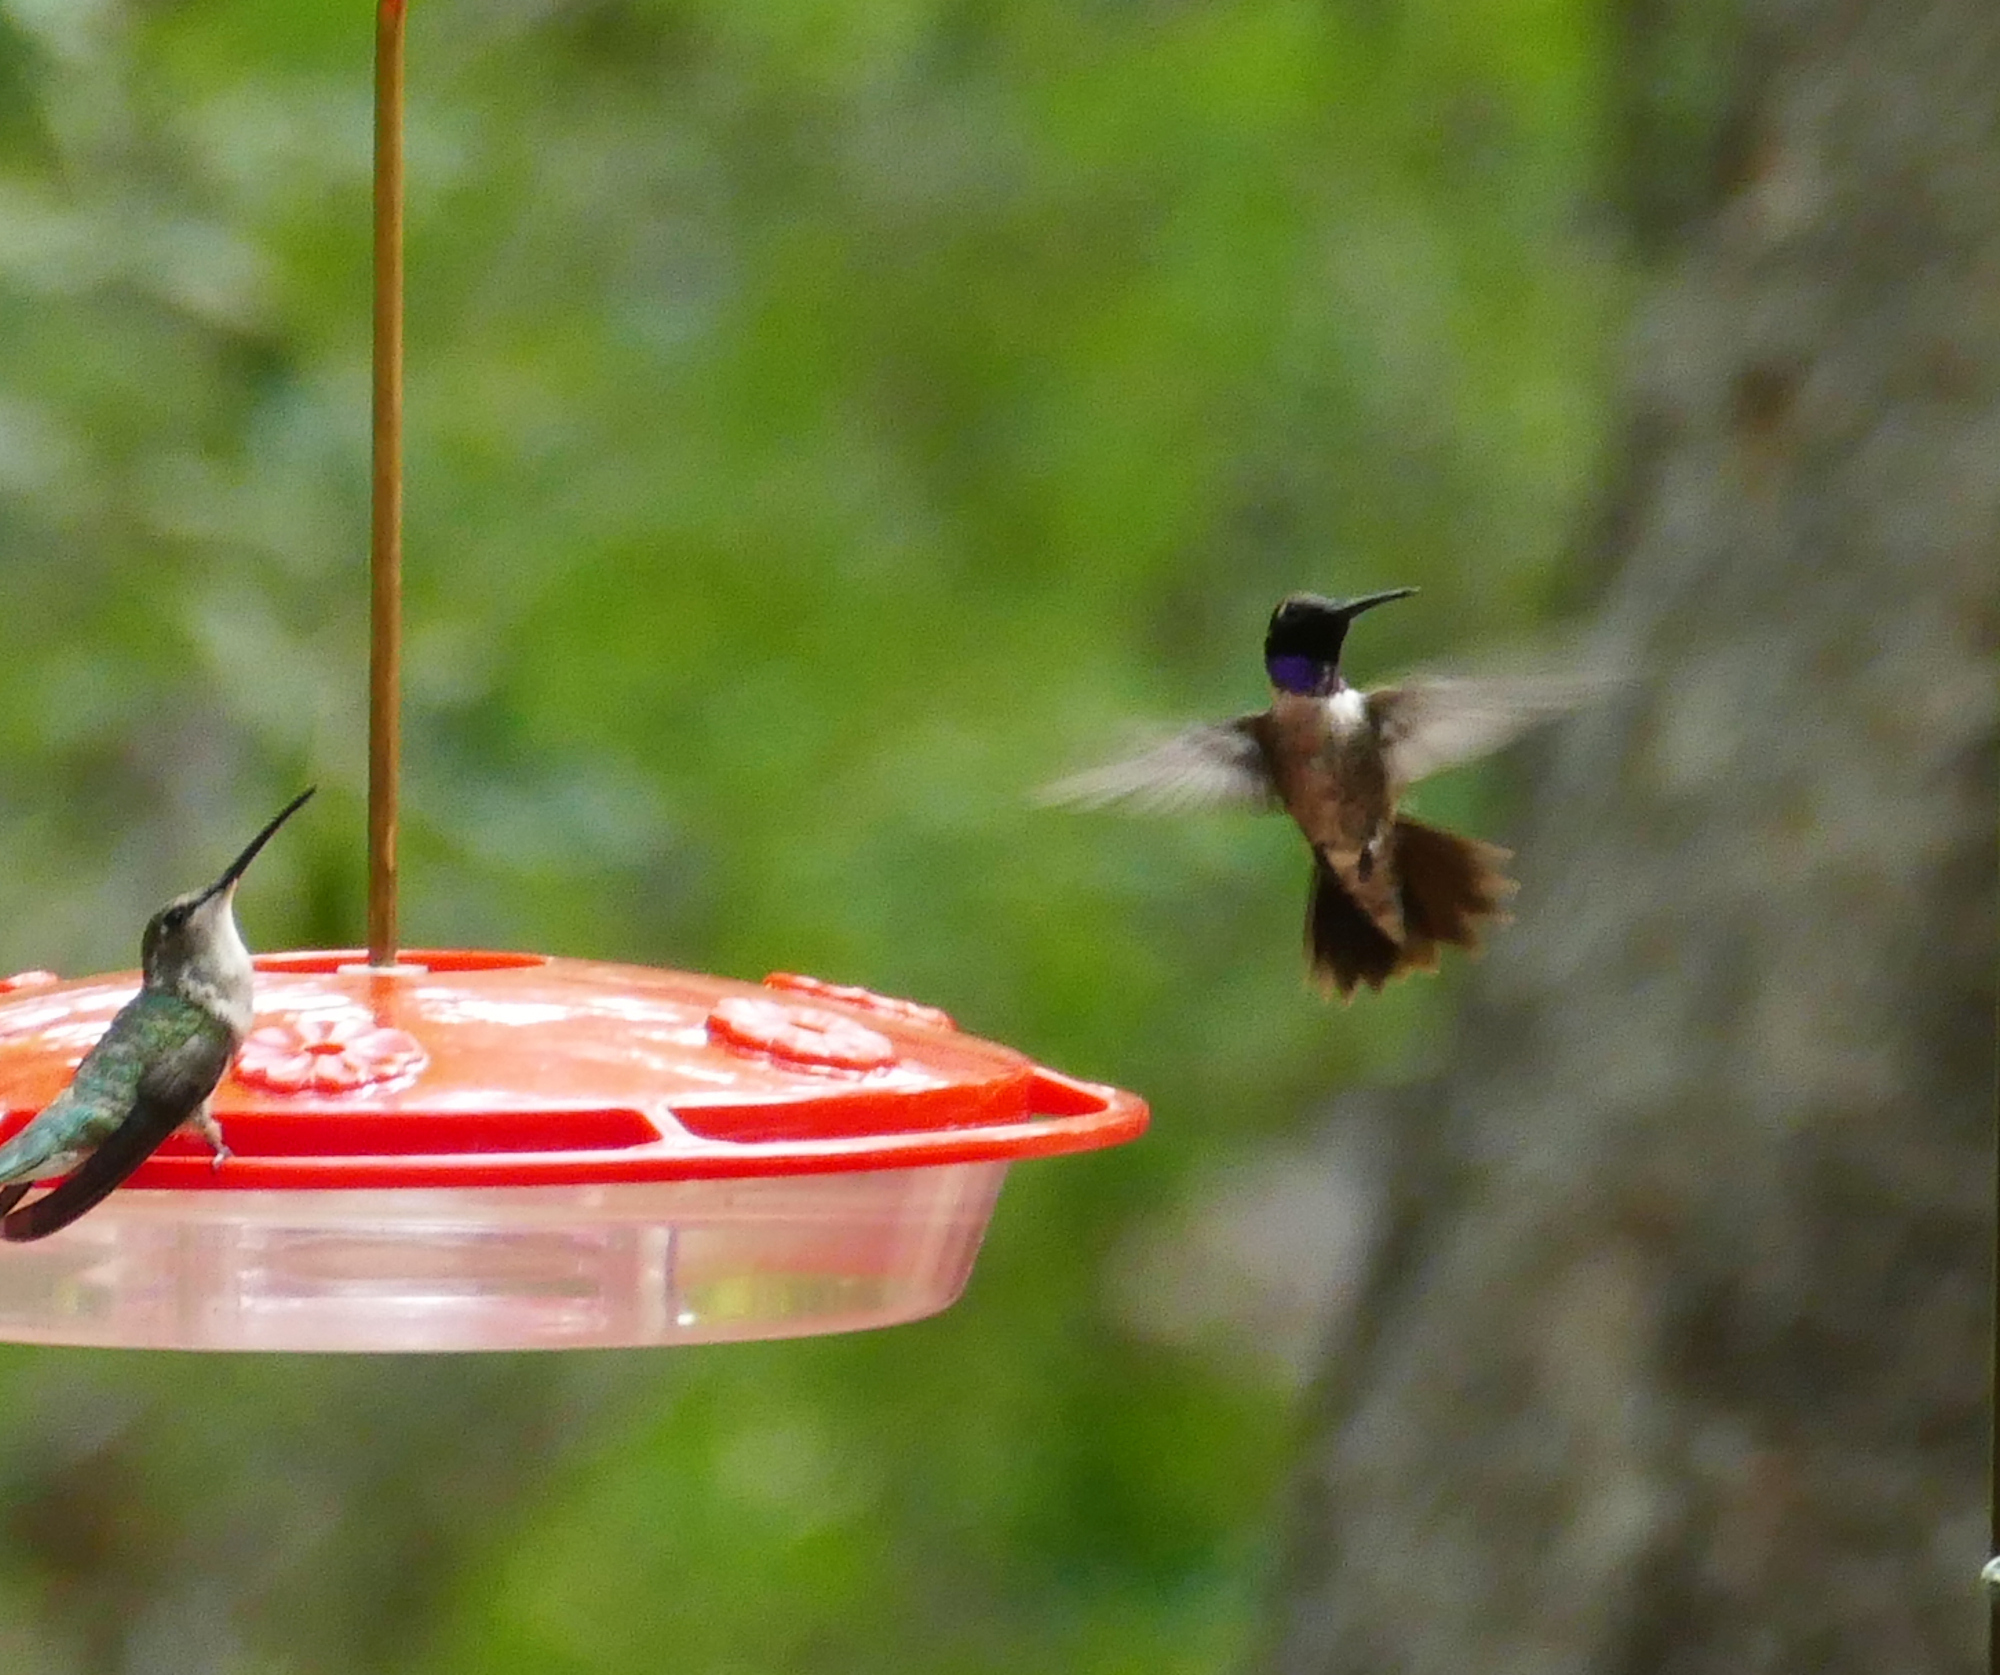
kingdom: Animalia
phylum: Chordata
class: Aves
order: Apodiformes
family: Trochilidae
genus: Archilochus
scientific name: Archilochus alexandri
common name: Black-chinned hummingbird
